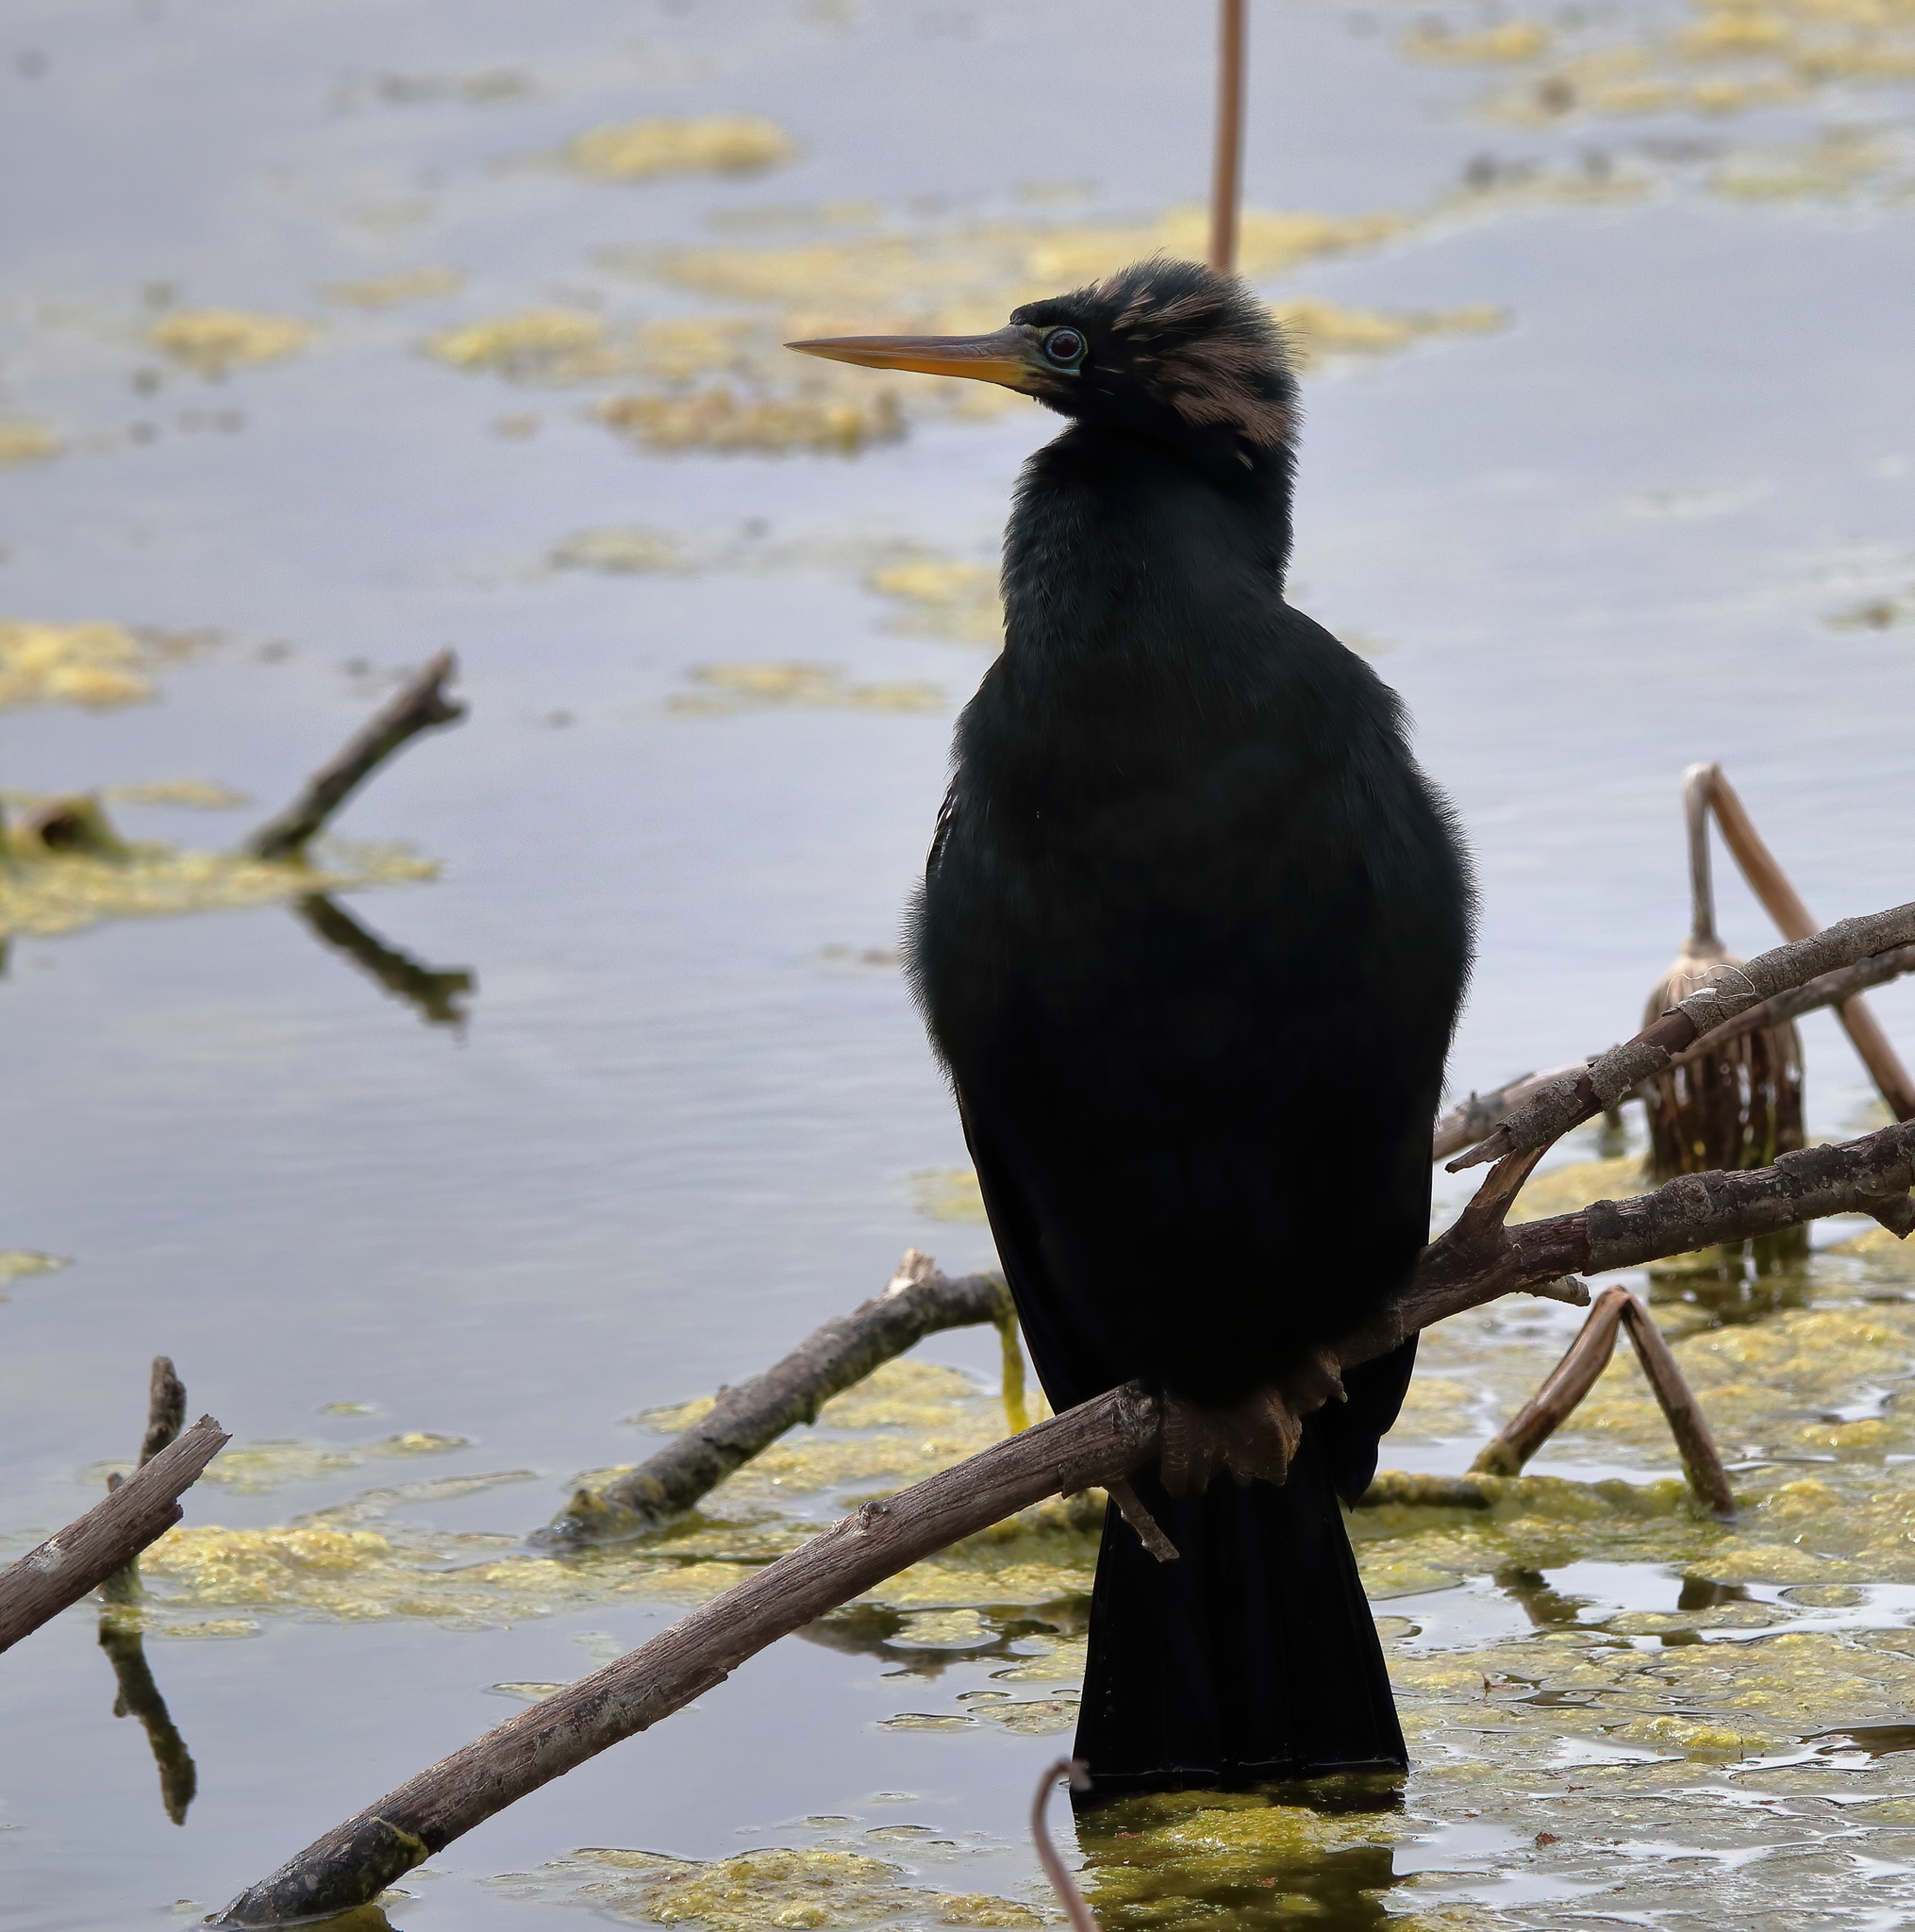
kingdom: Animalia
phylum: Chordata
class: Aves
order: Suliformes
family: Anhingidae
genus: Anhinga
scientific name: Anhinga anhinga
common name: Anhinga
